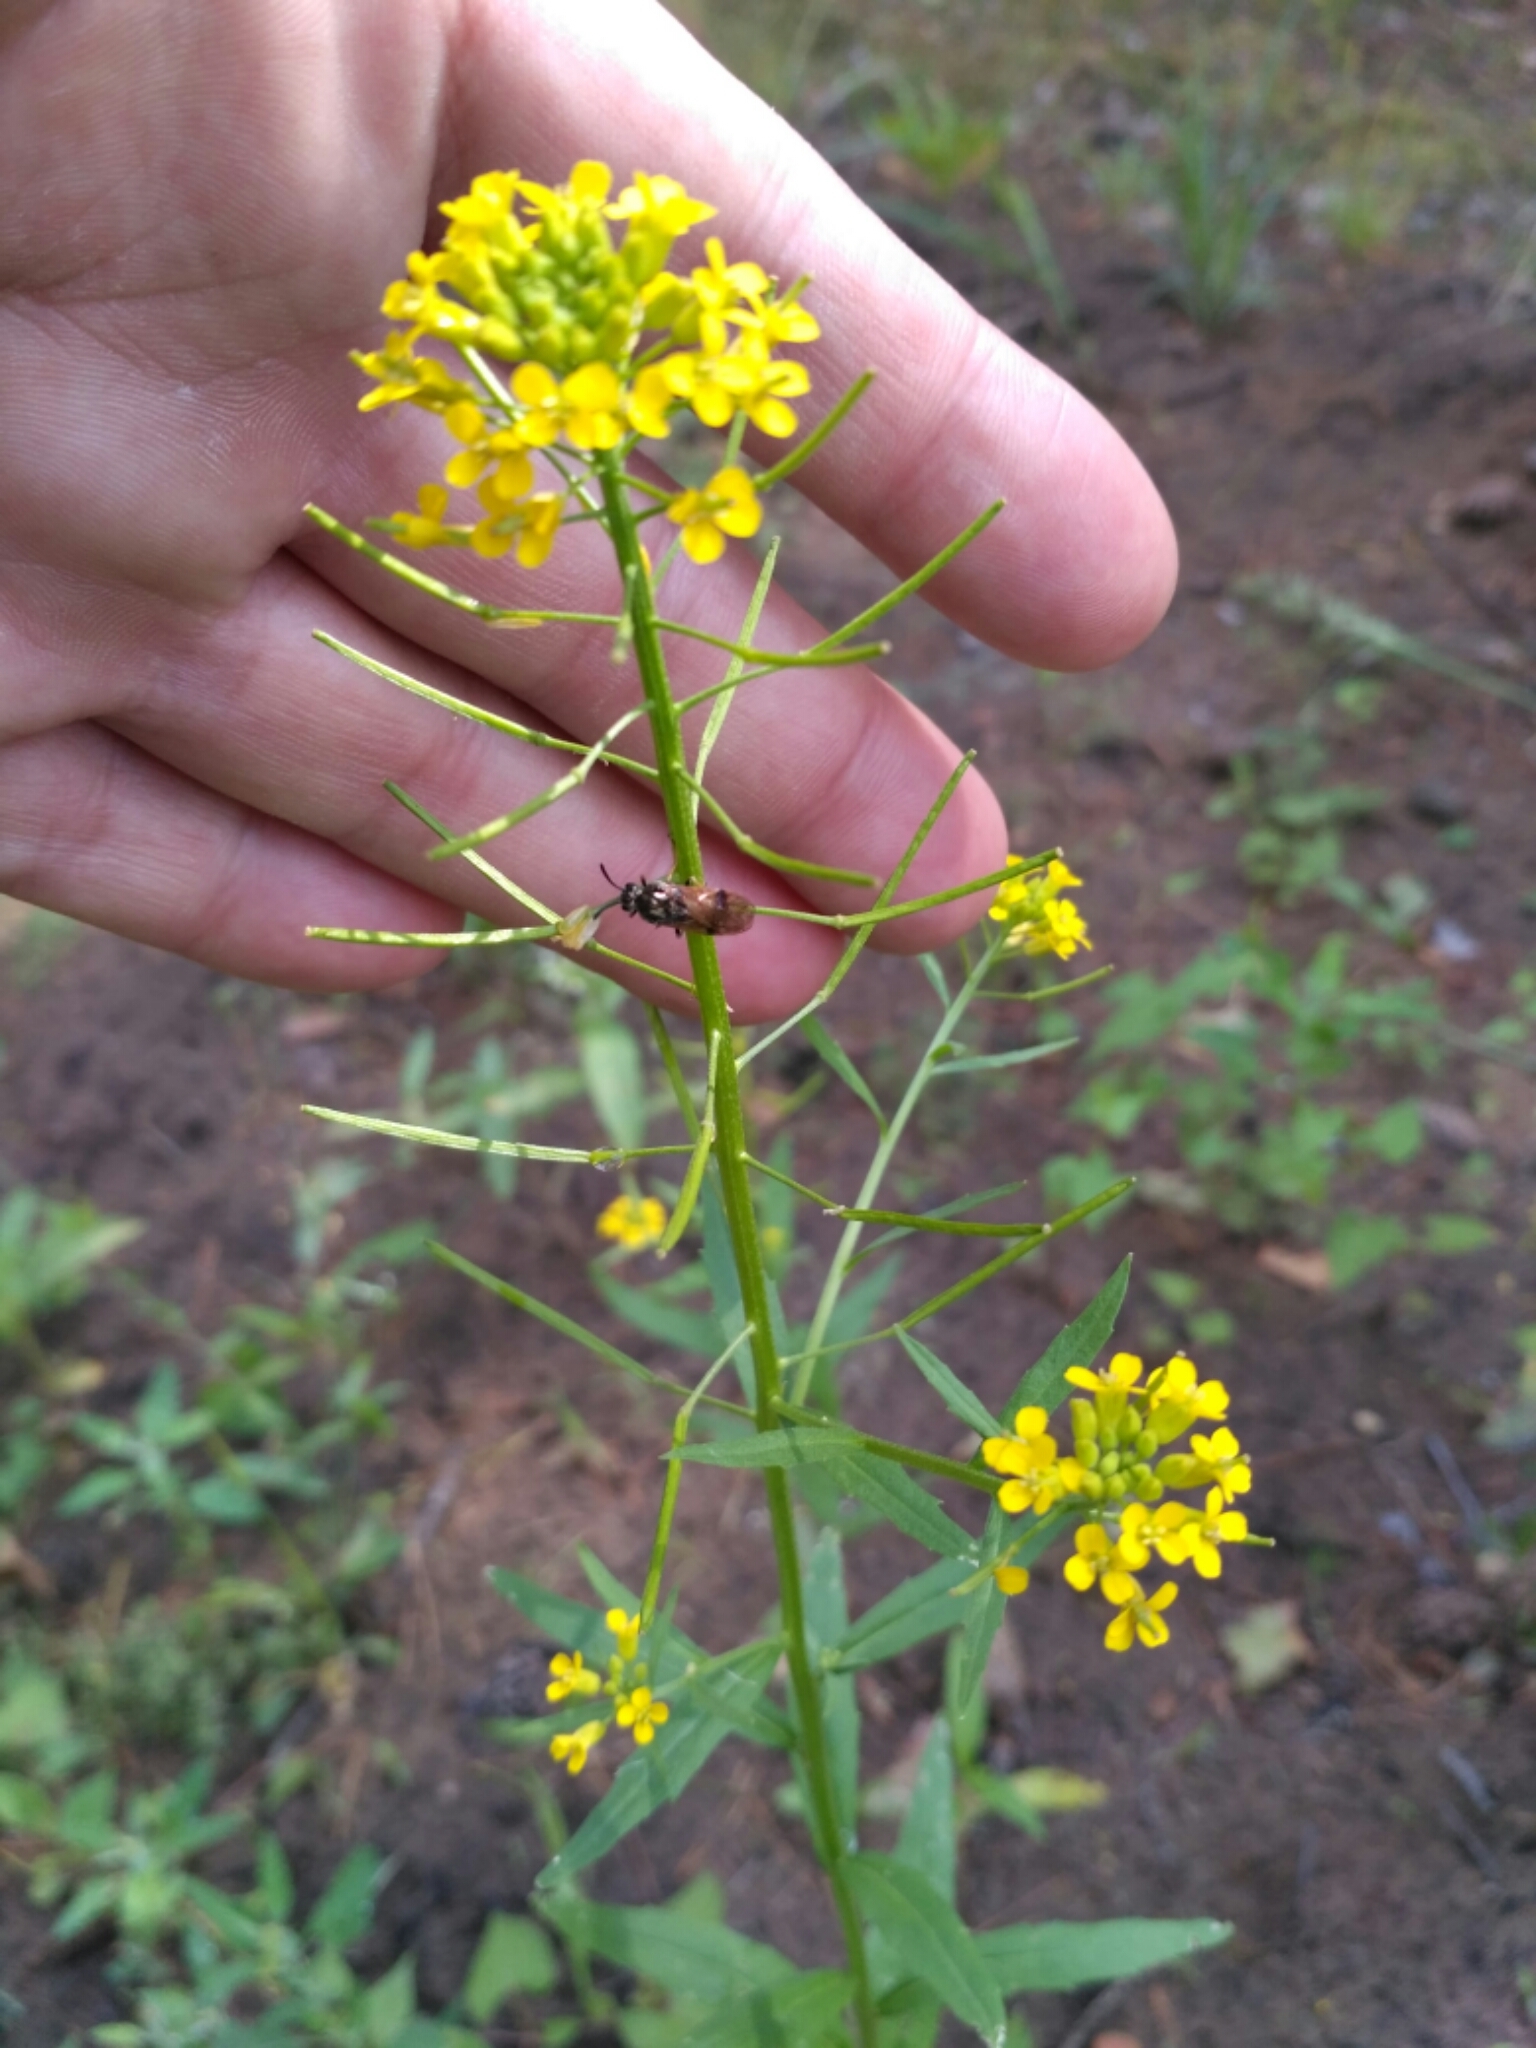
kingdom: Plantae
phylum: Tracheophyta
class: Magnoliopsida
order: Brassicales
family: Brassicaceae
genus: Erysimum
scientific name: Erysimum cheiranthoides
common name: Treacle mustard
